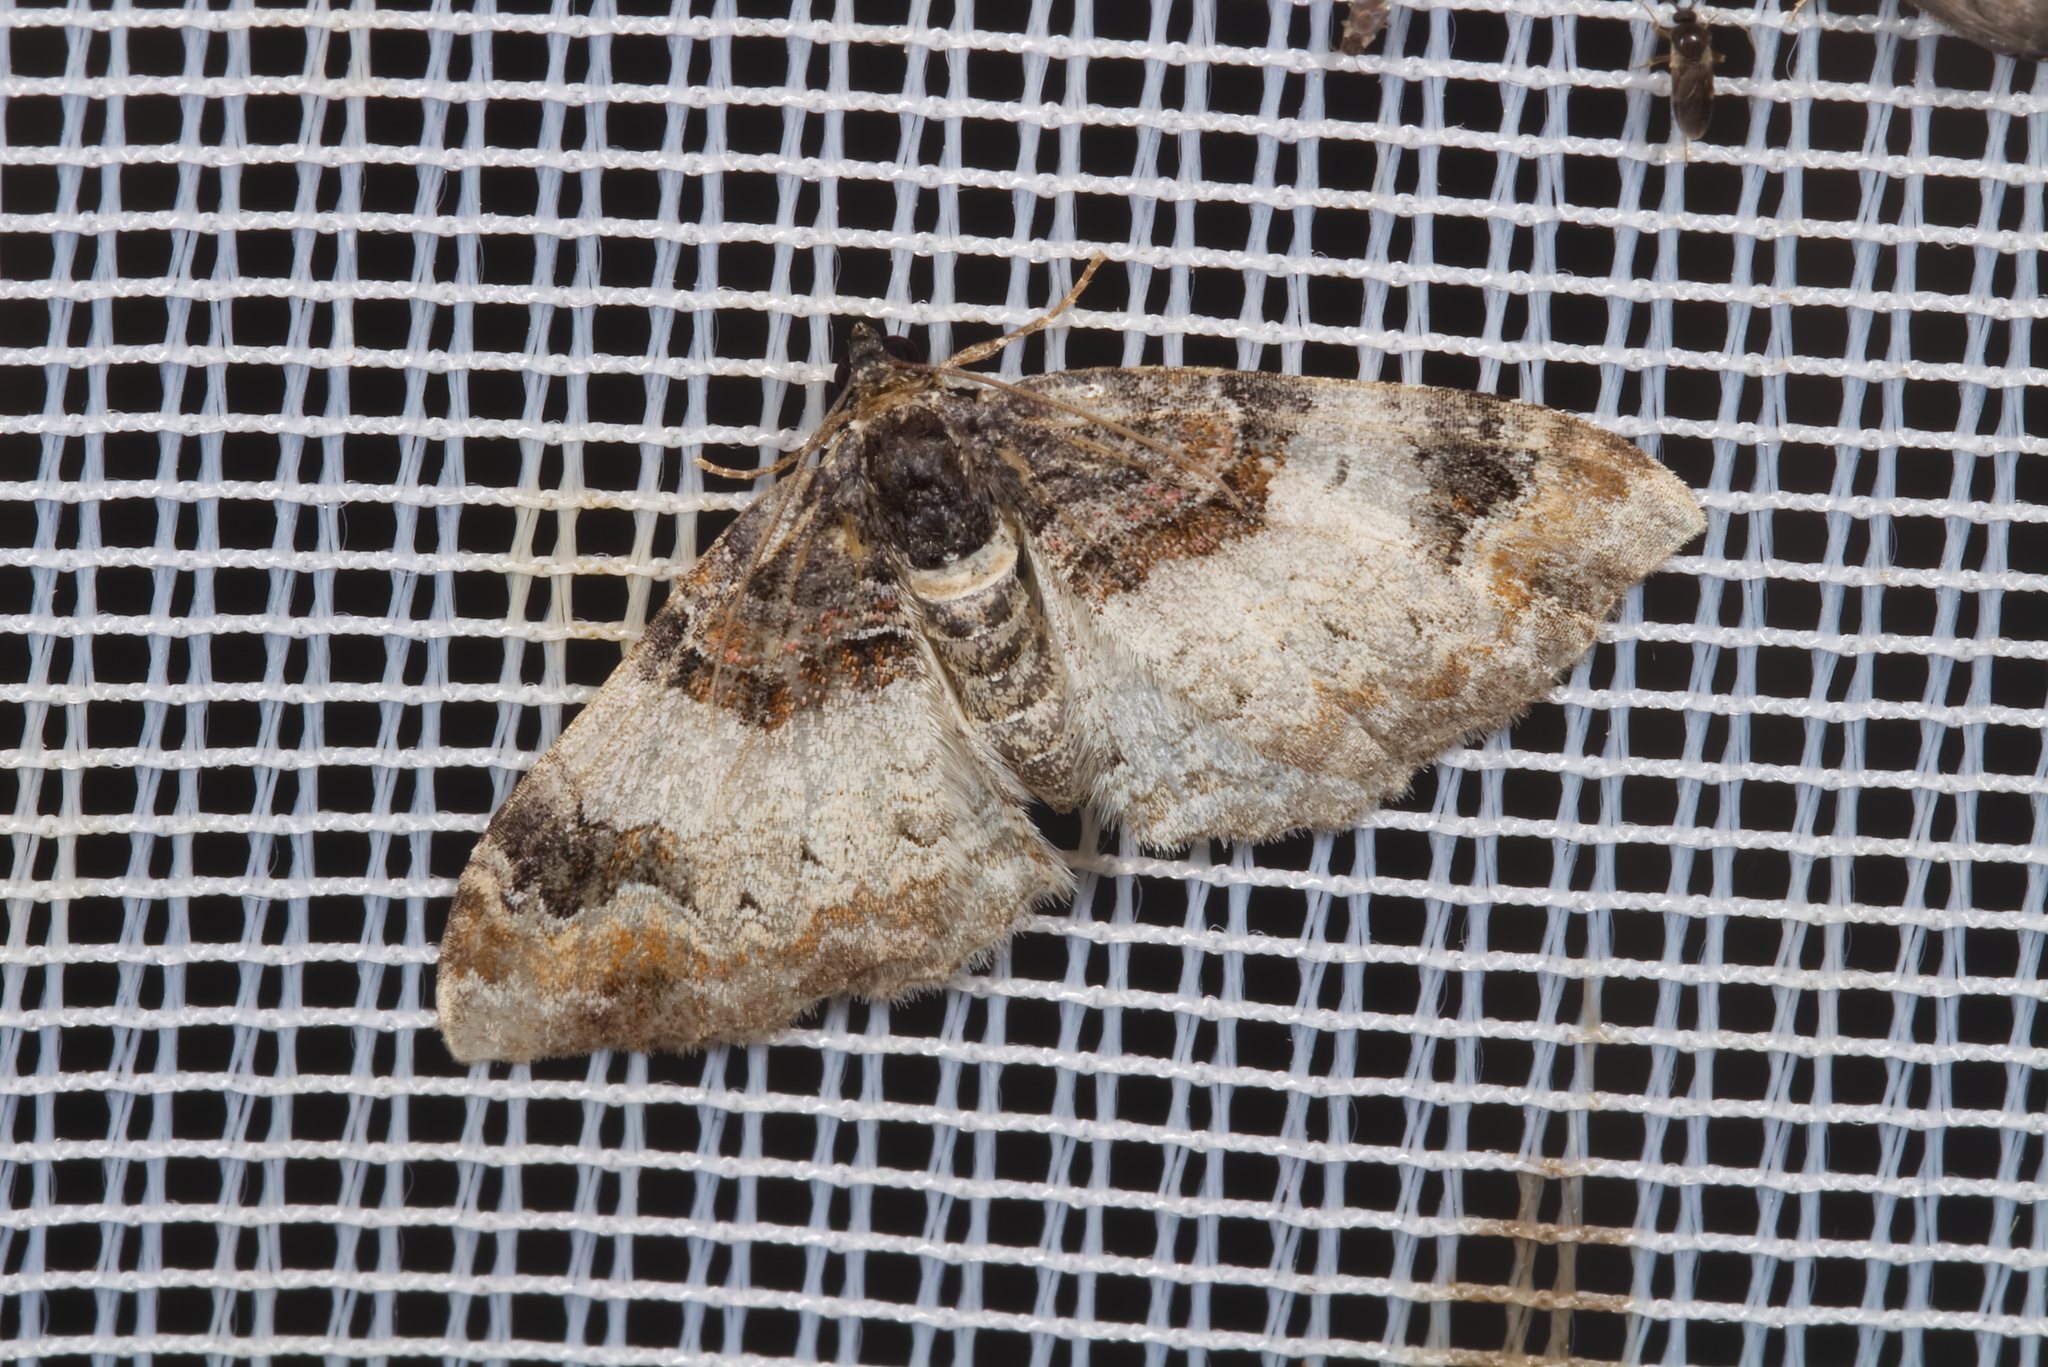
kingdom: Animalia
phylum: Arthropoda
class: Insecta
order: Lepidoptera
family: Geometridae
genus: Catarhoe
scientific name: Catarhoe cuculata
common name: Royal mantle
